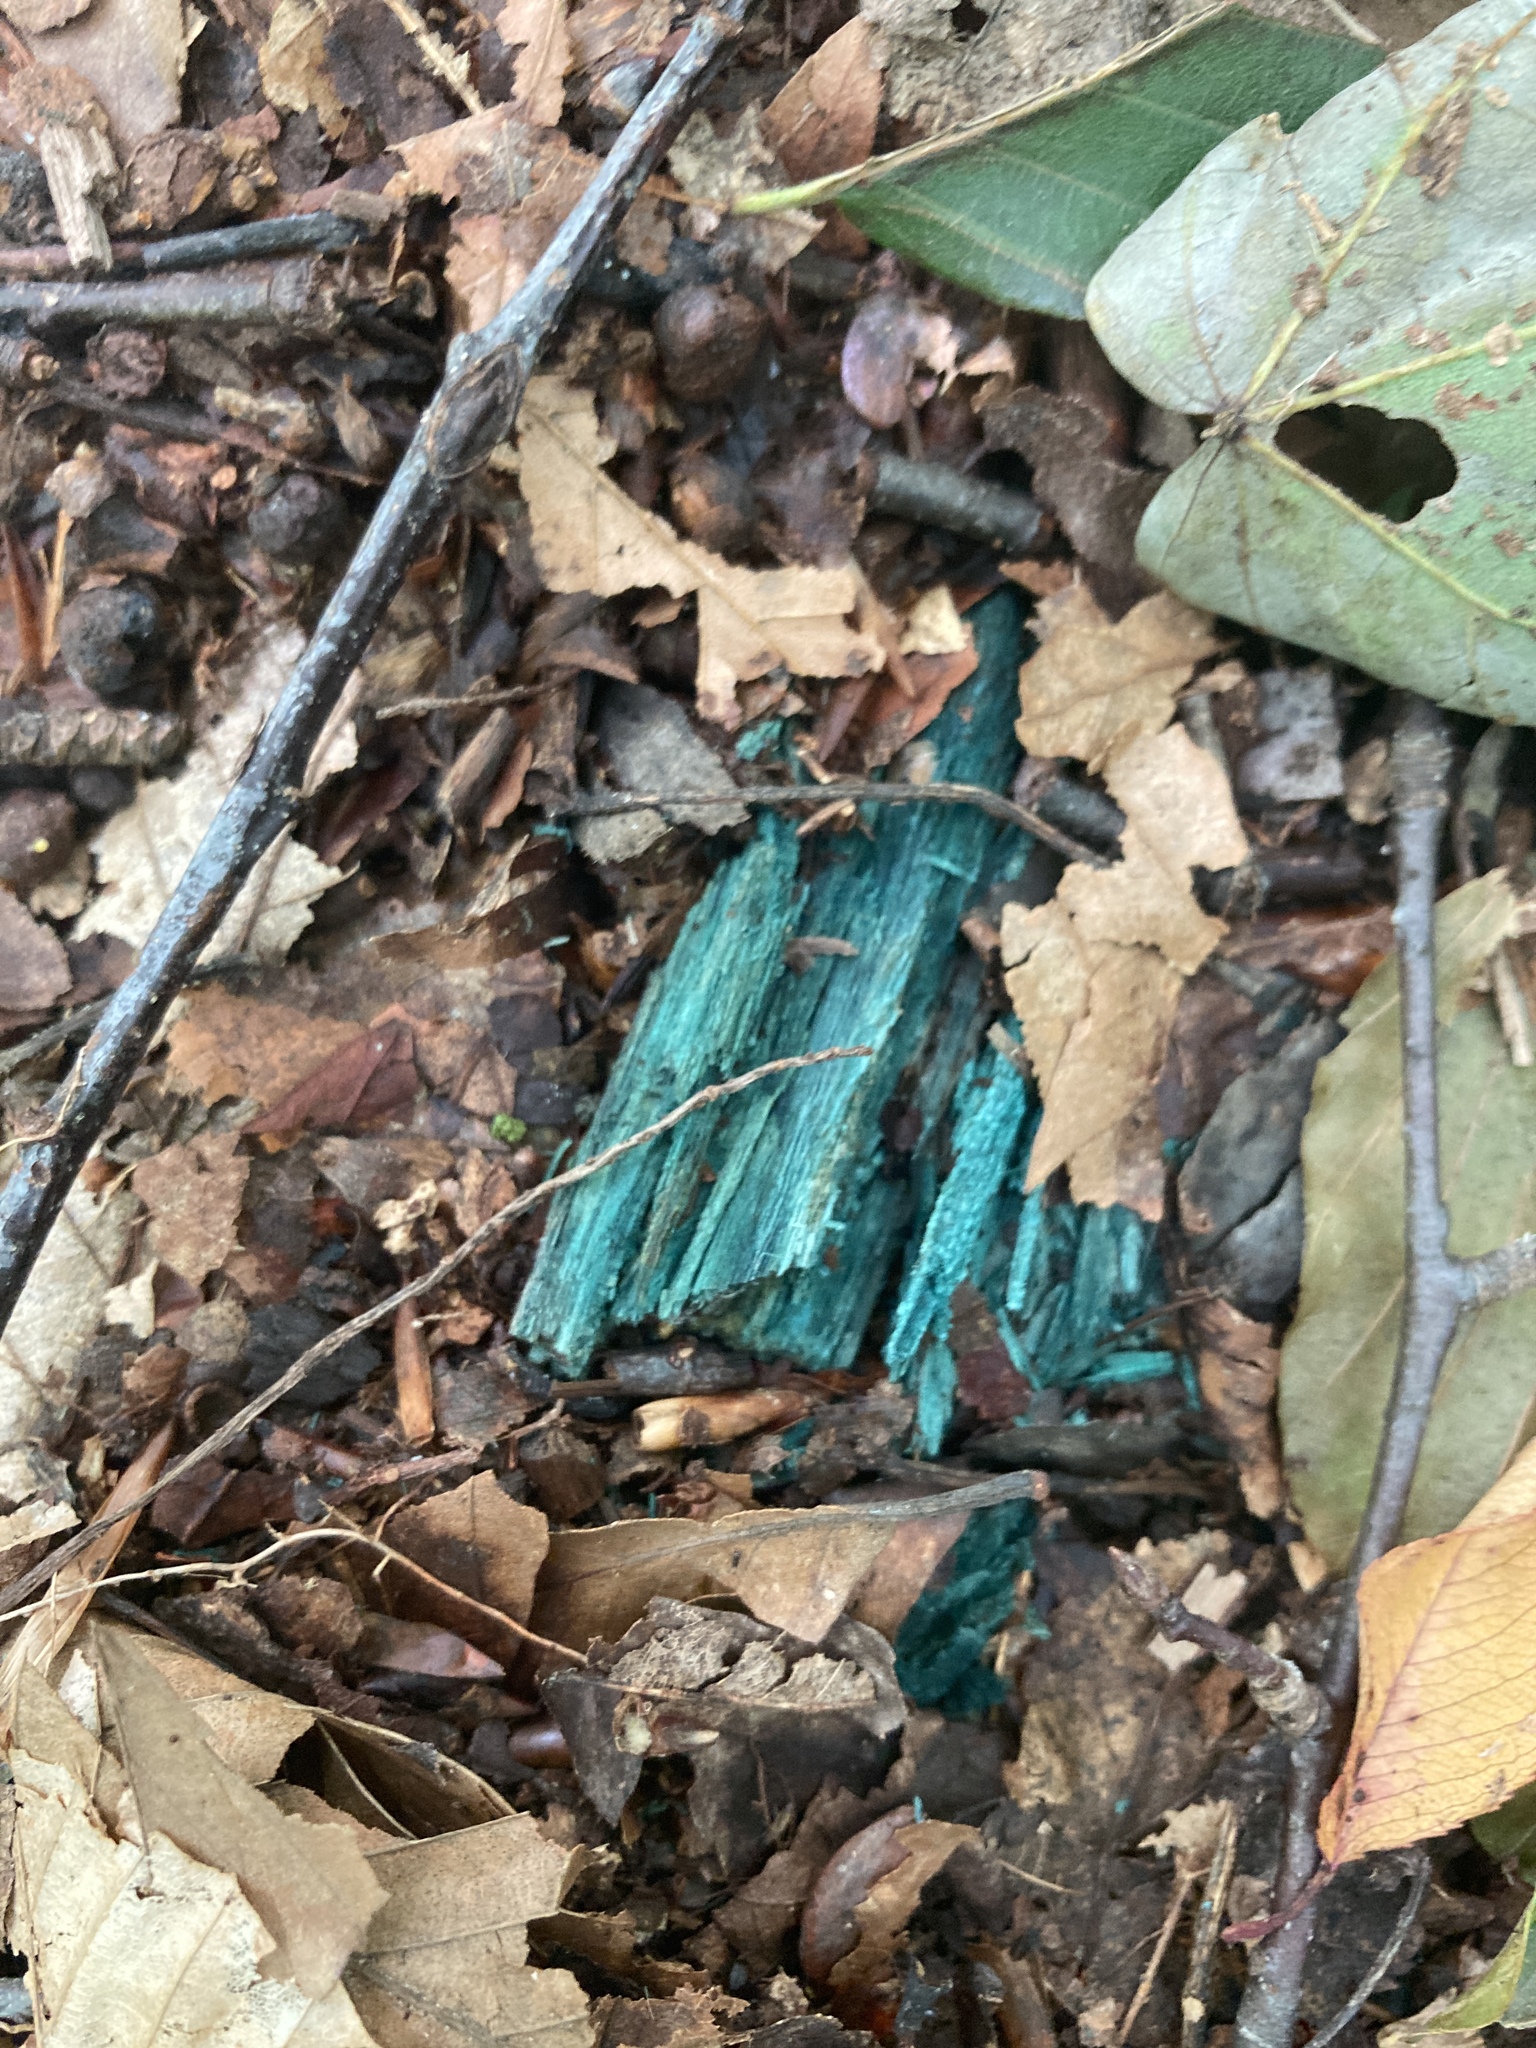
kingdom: Fungi
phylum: Ascomycota
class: Leotiomycetes
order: Helotiales
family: Chlorociboriaceae
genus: Chlorociboria
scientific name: Chlorociboria aeruginascens
